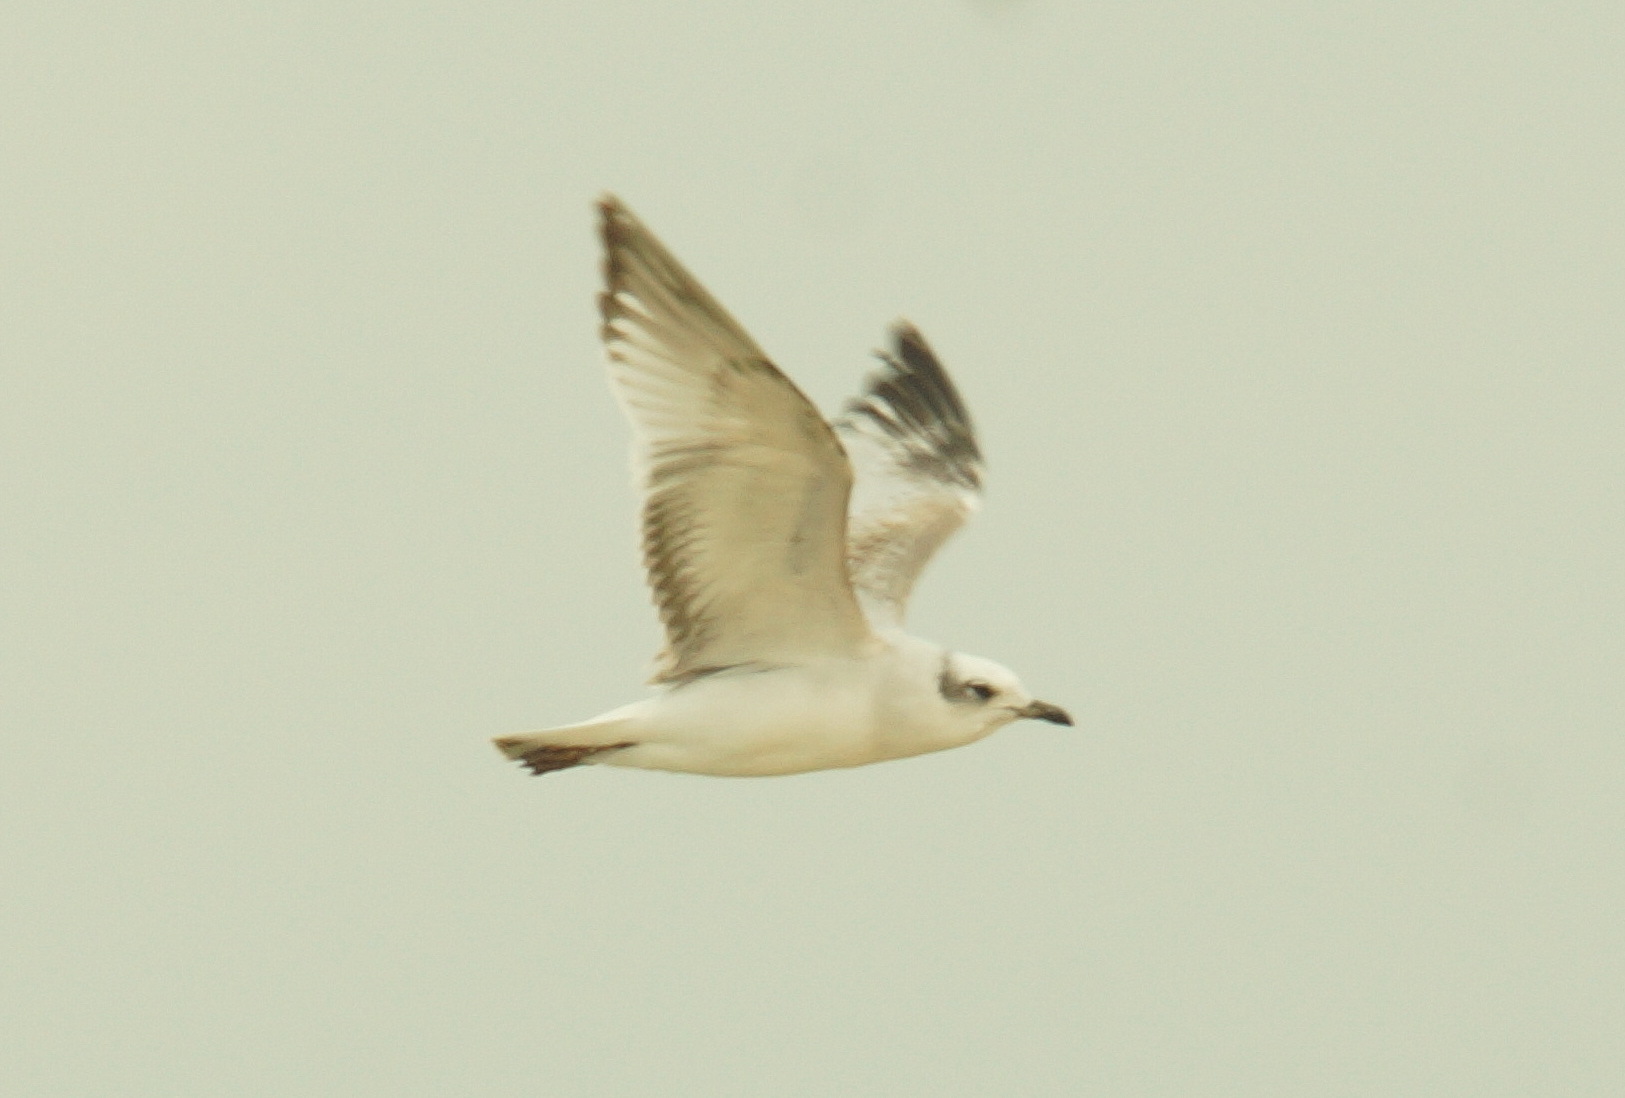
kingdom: Animalia
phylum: Chordata
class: Aves
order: Charadriiformes
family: Laridae
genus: Ichthyaetus
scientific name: Ichthyaetus melanocephalus
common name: Mediterranean gull
